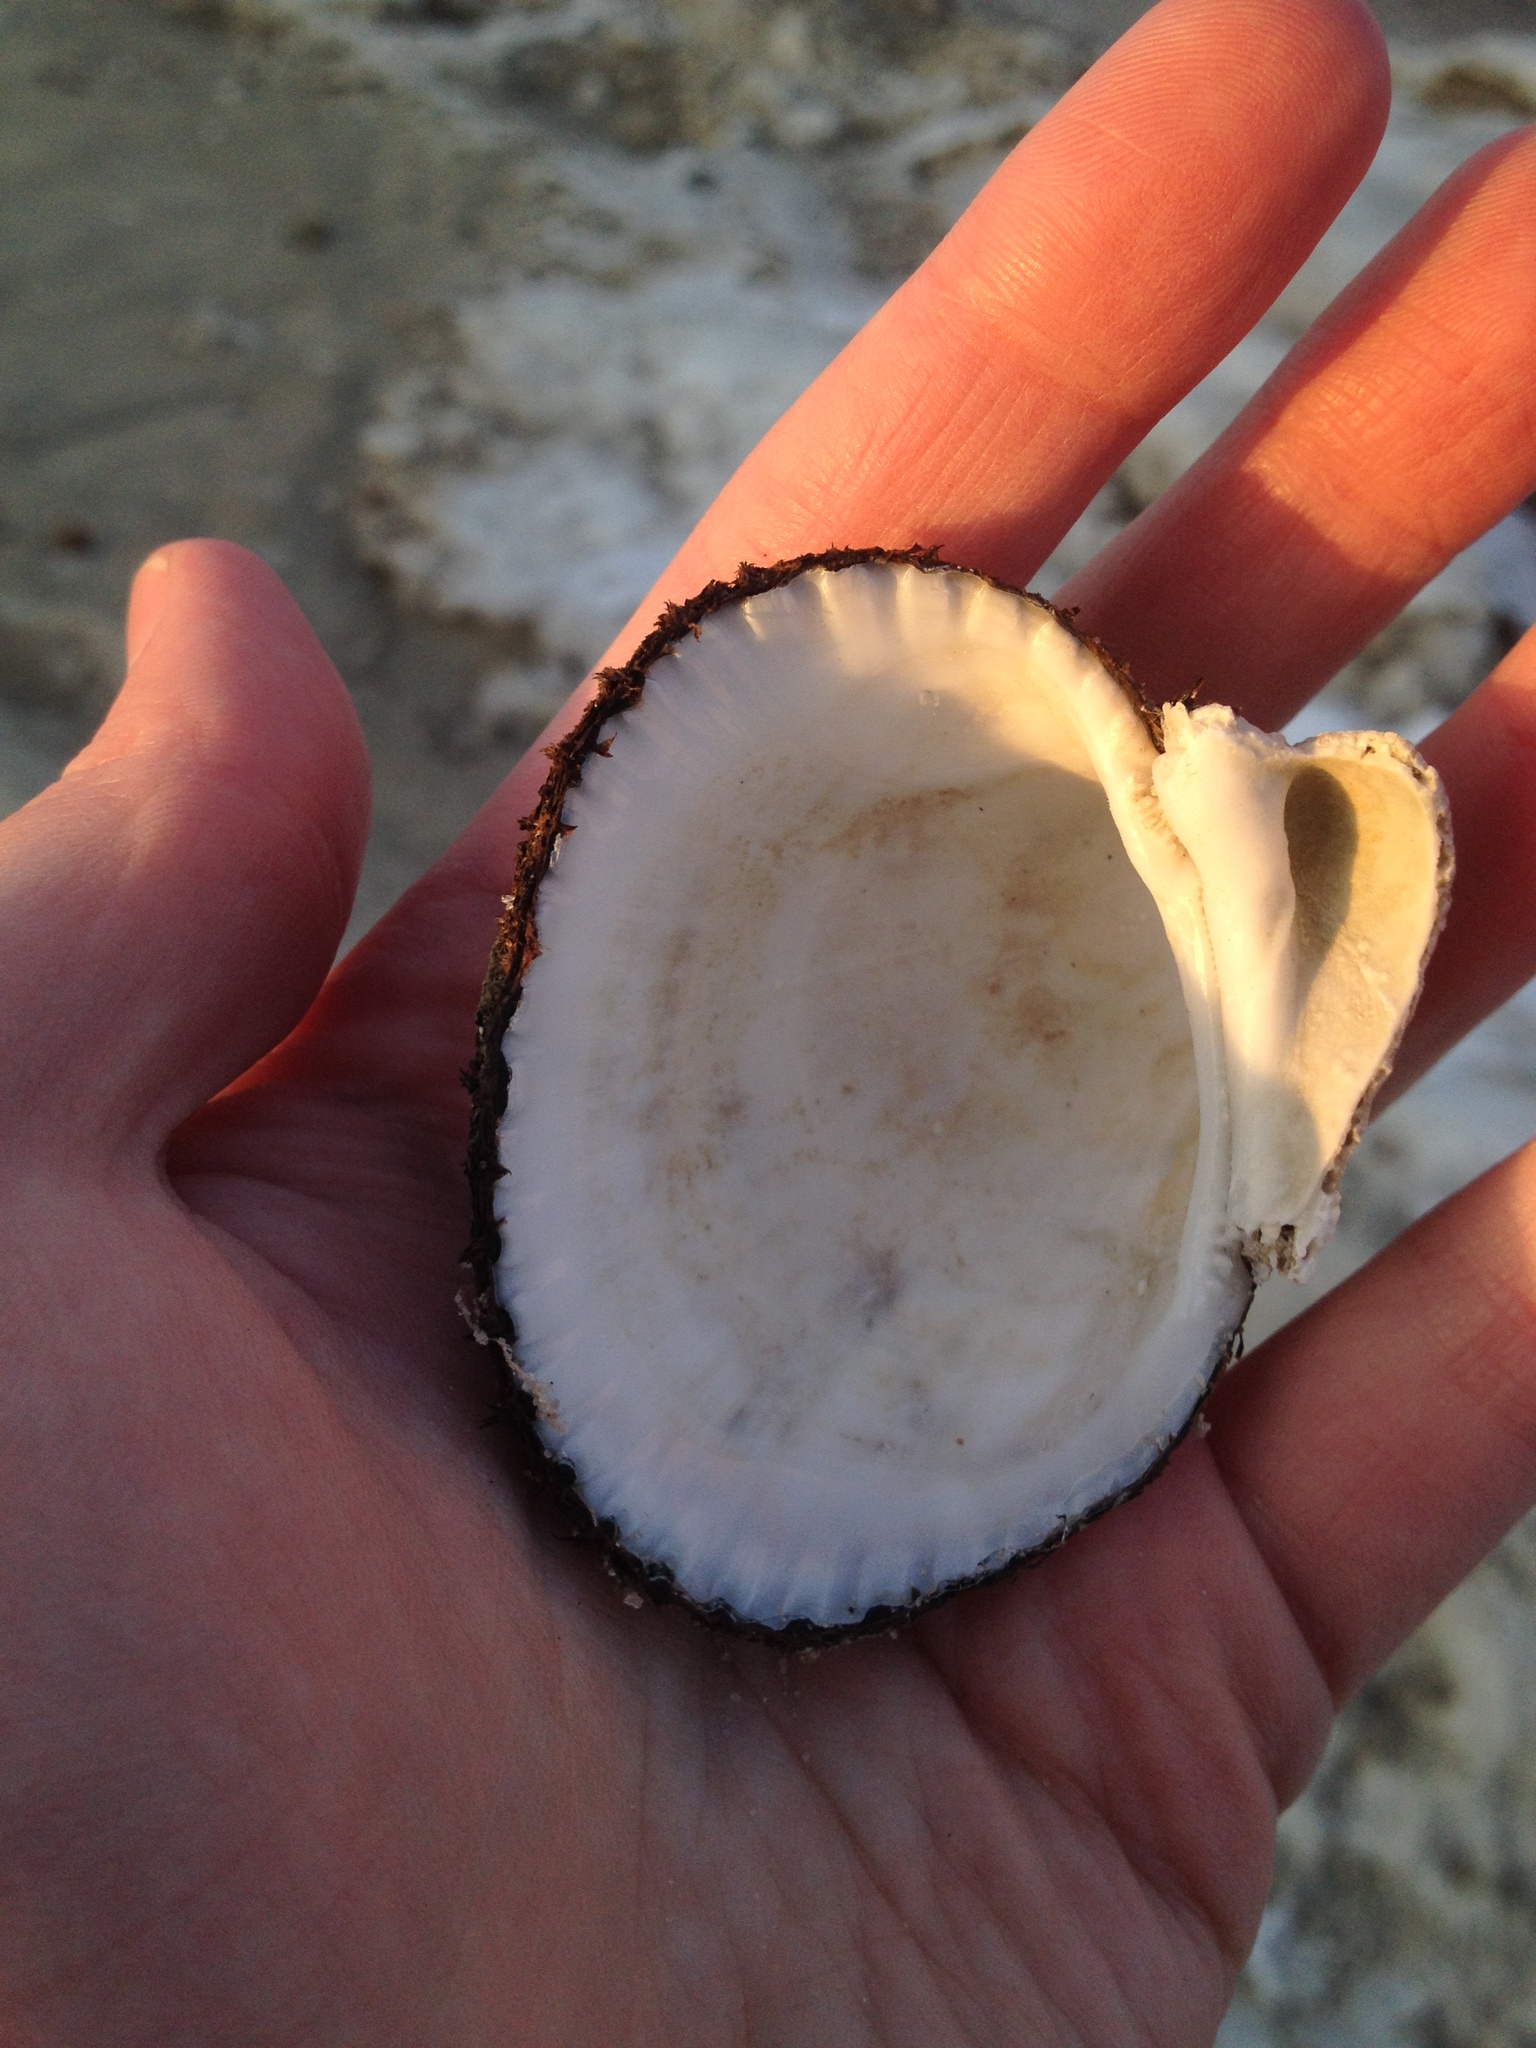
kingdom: Animalia
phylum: Mollusca
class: Bivalvia
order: Arcida
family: Arcidae
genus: Lunarca
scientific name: Lunarca ovalis
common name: Blood ark
